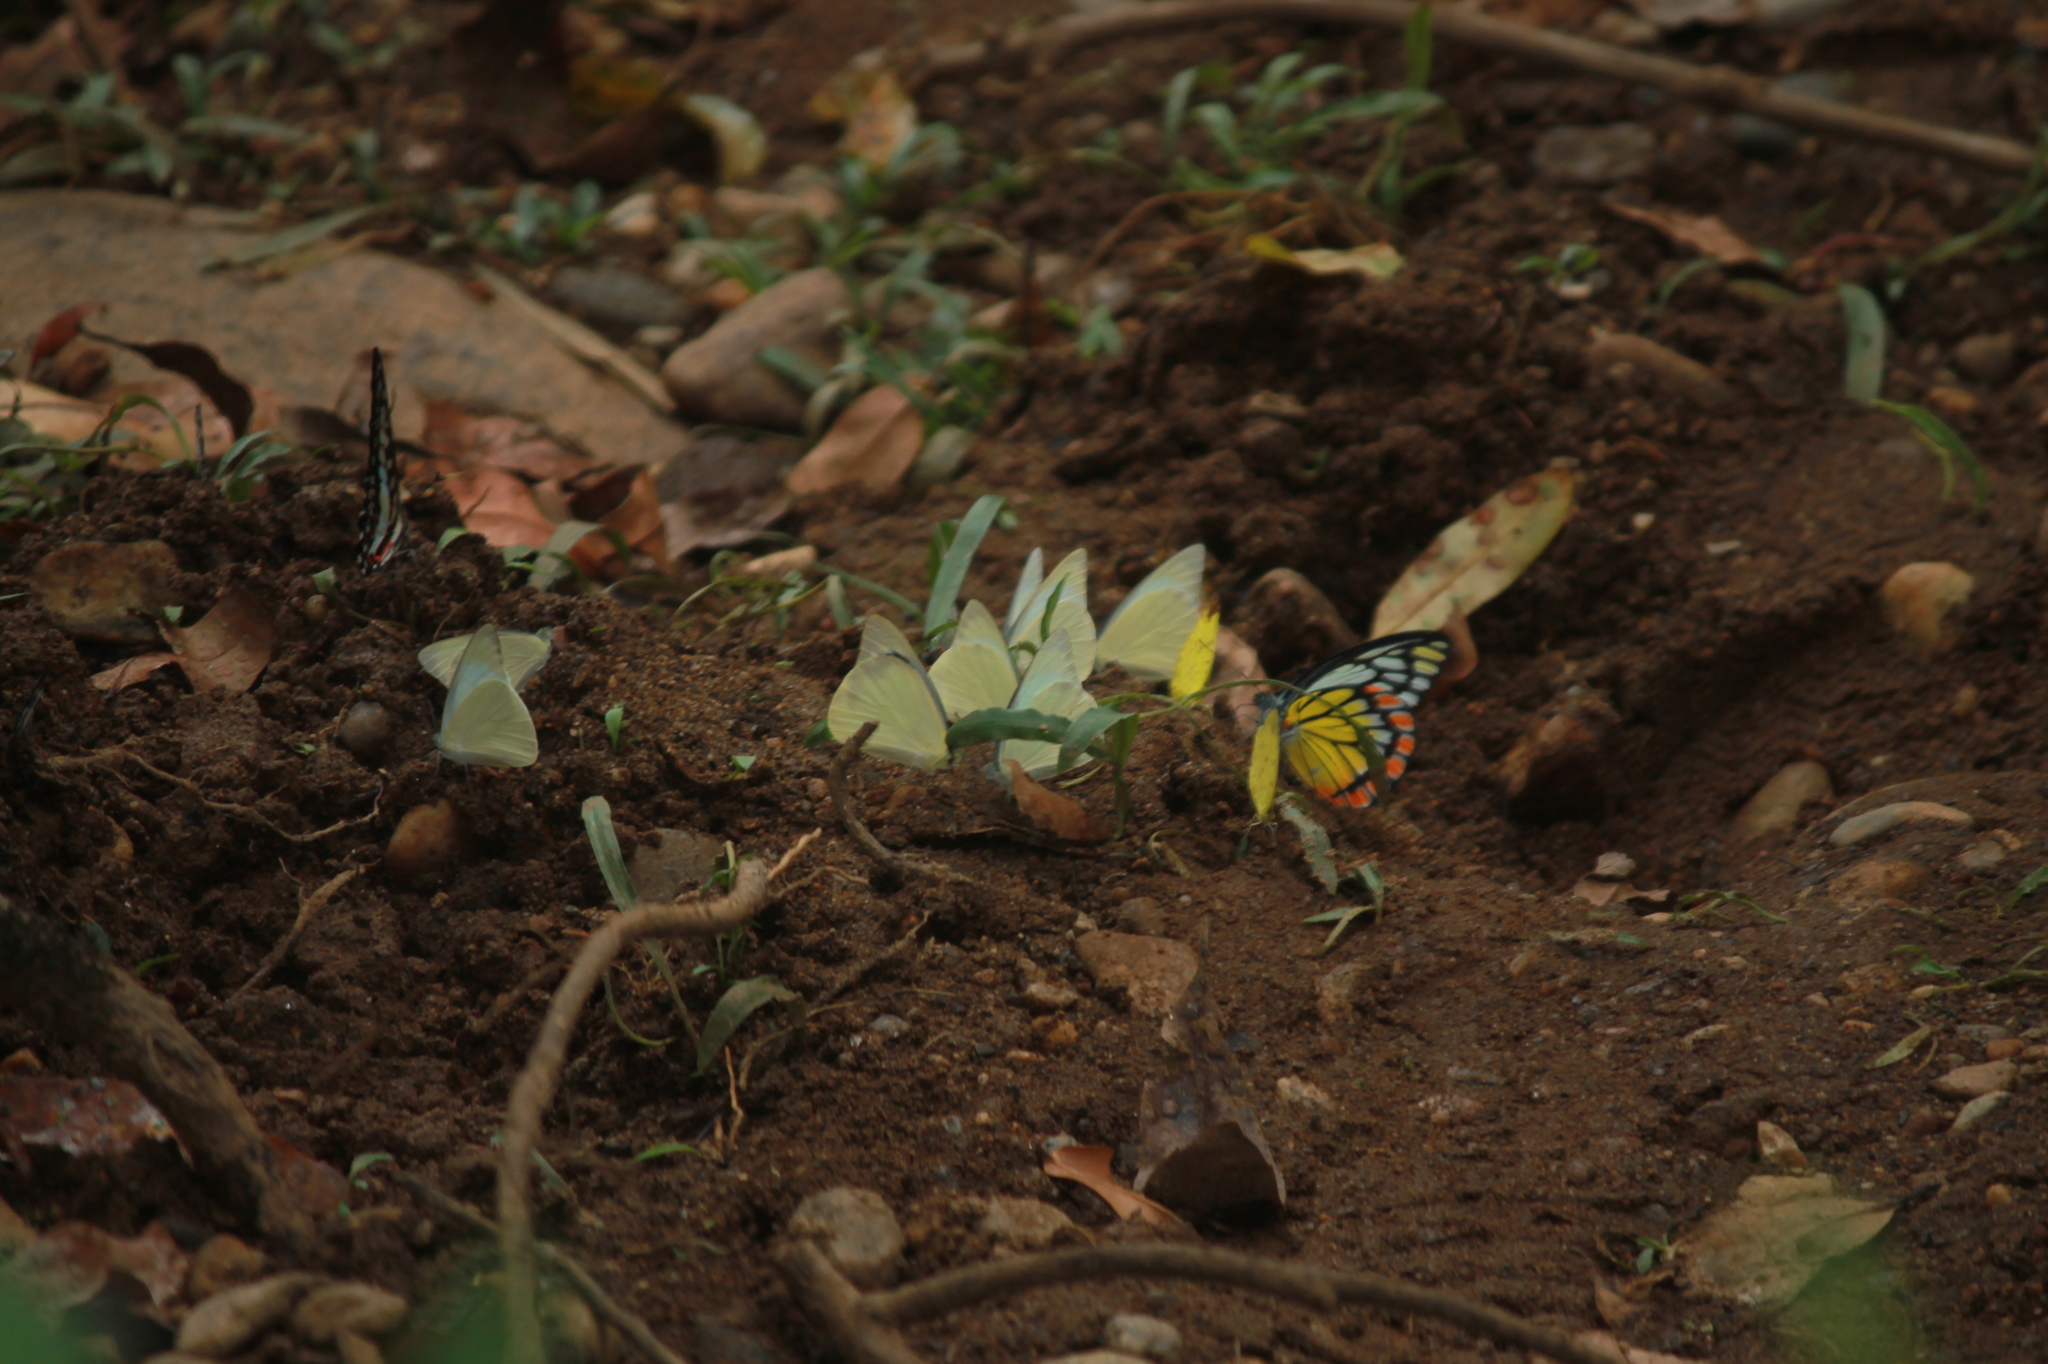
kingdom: Animalia
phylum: Arthropoda
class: Insecta
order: Lepidoptera
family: Pieridae
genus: Prioneris
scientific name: Prioneris sita
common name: Painted sawtooth
